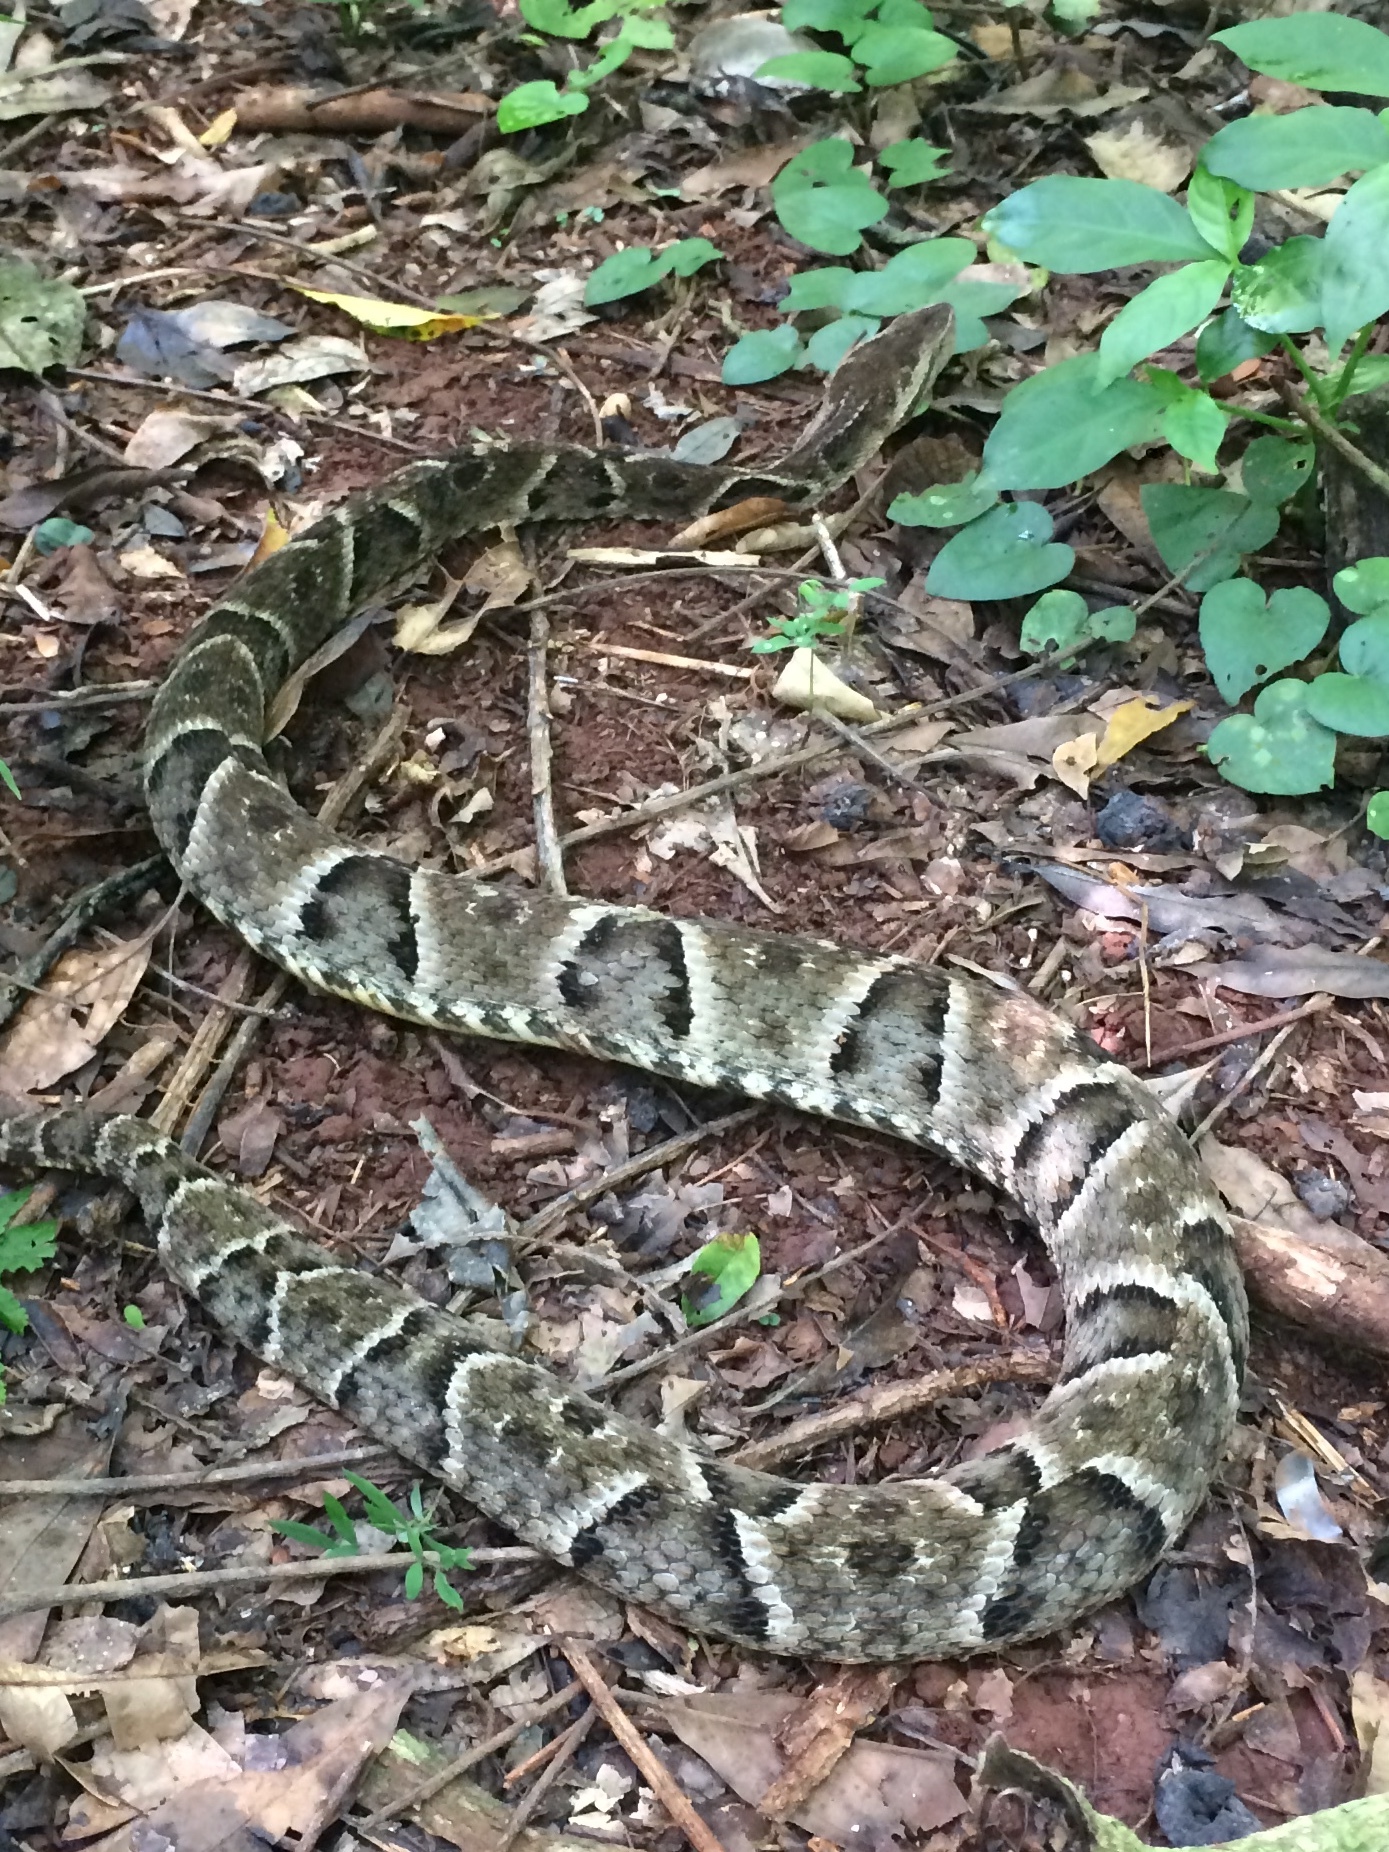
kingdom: Animalia
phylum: Chordata
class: Squamata
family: Viperidae
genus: Bothrops
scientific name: Bothrops moojeni
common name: Brazilian lancehead
